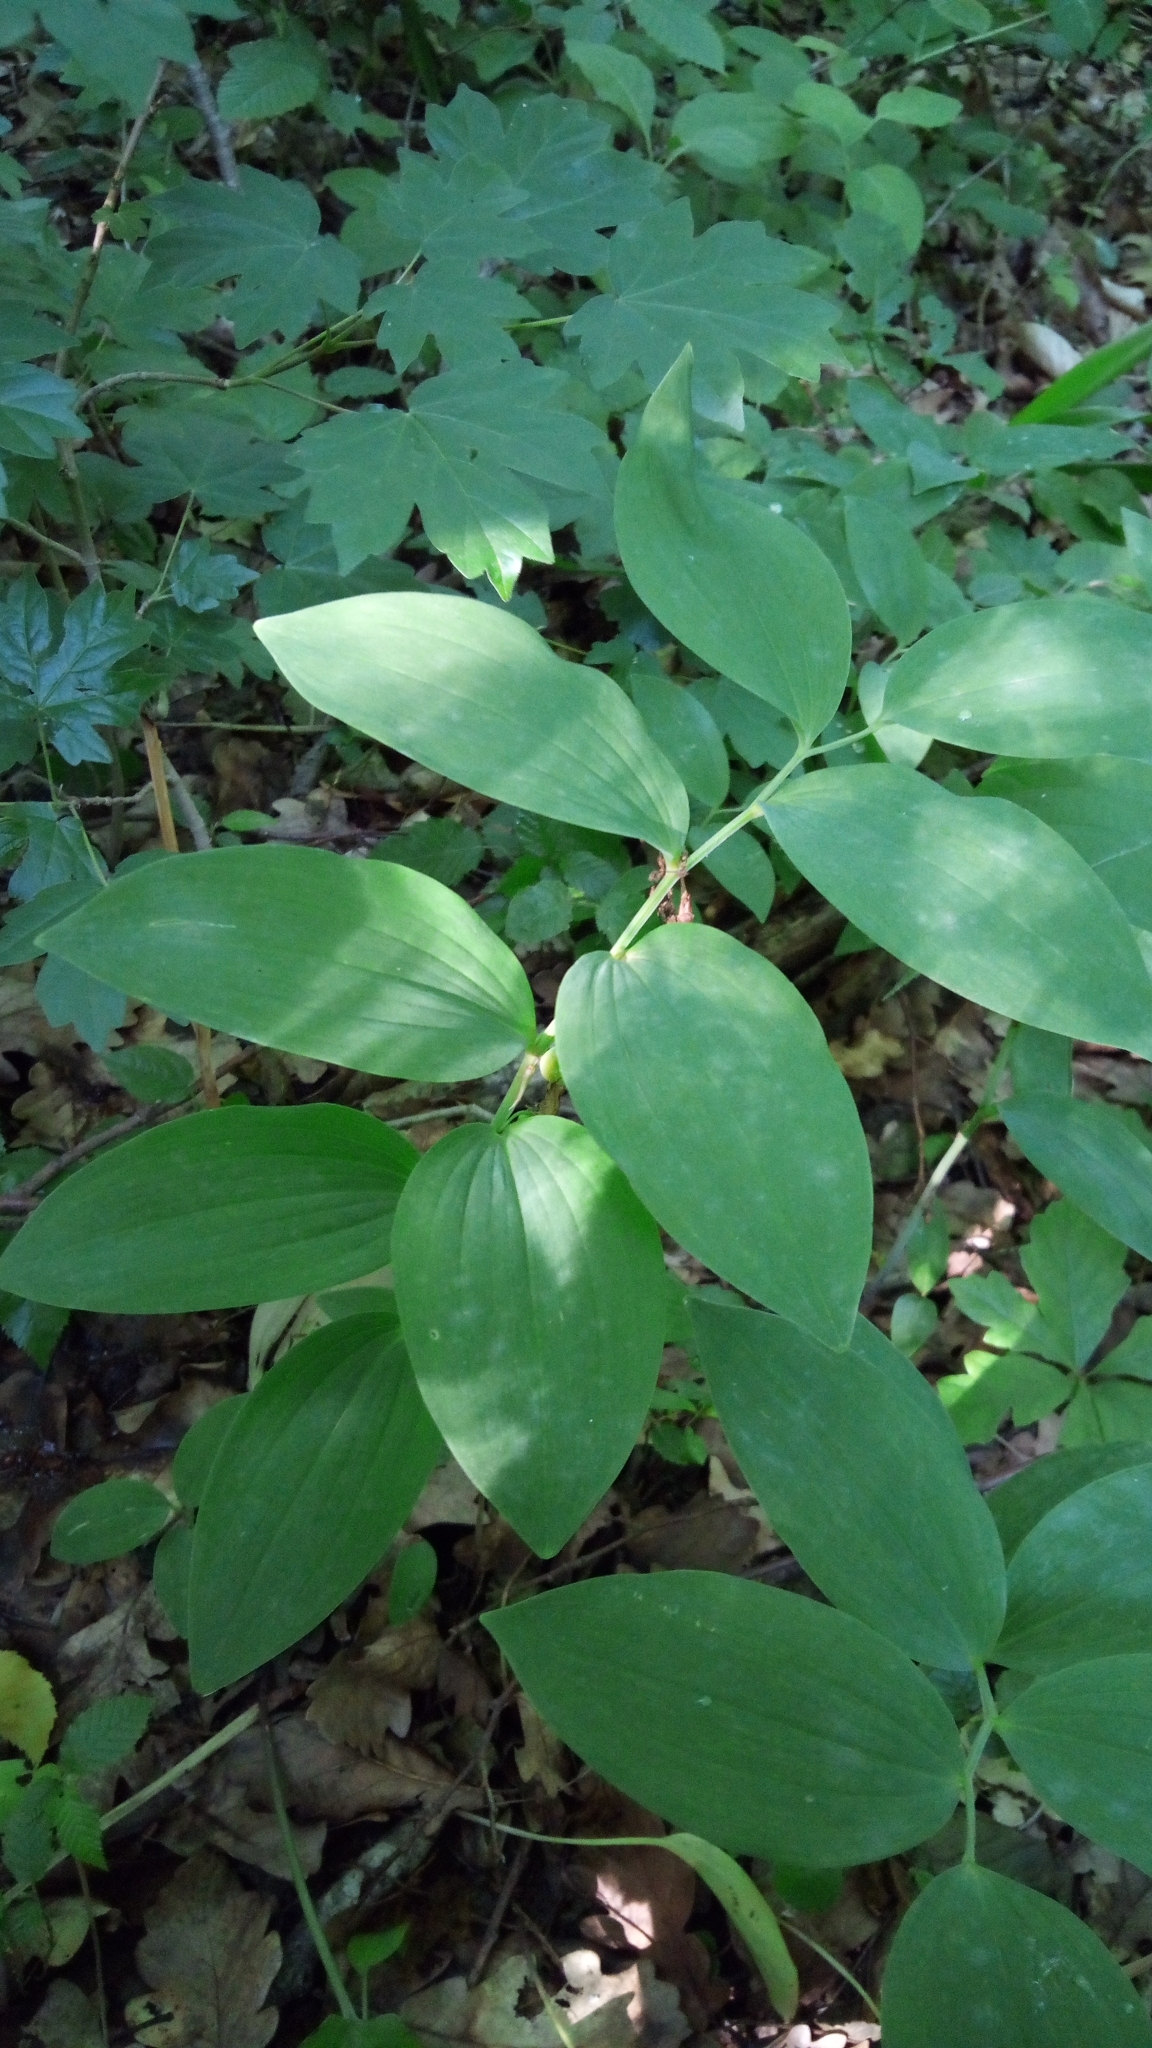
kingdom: Plantae
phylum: Tracheophyta
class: Liliopsida
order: Asparagales
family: Asparagaceae
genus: Polygonatum
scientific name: Polygonatum odoratum
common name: Angular solomon's-seal
